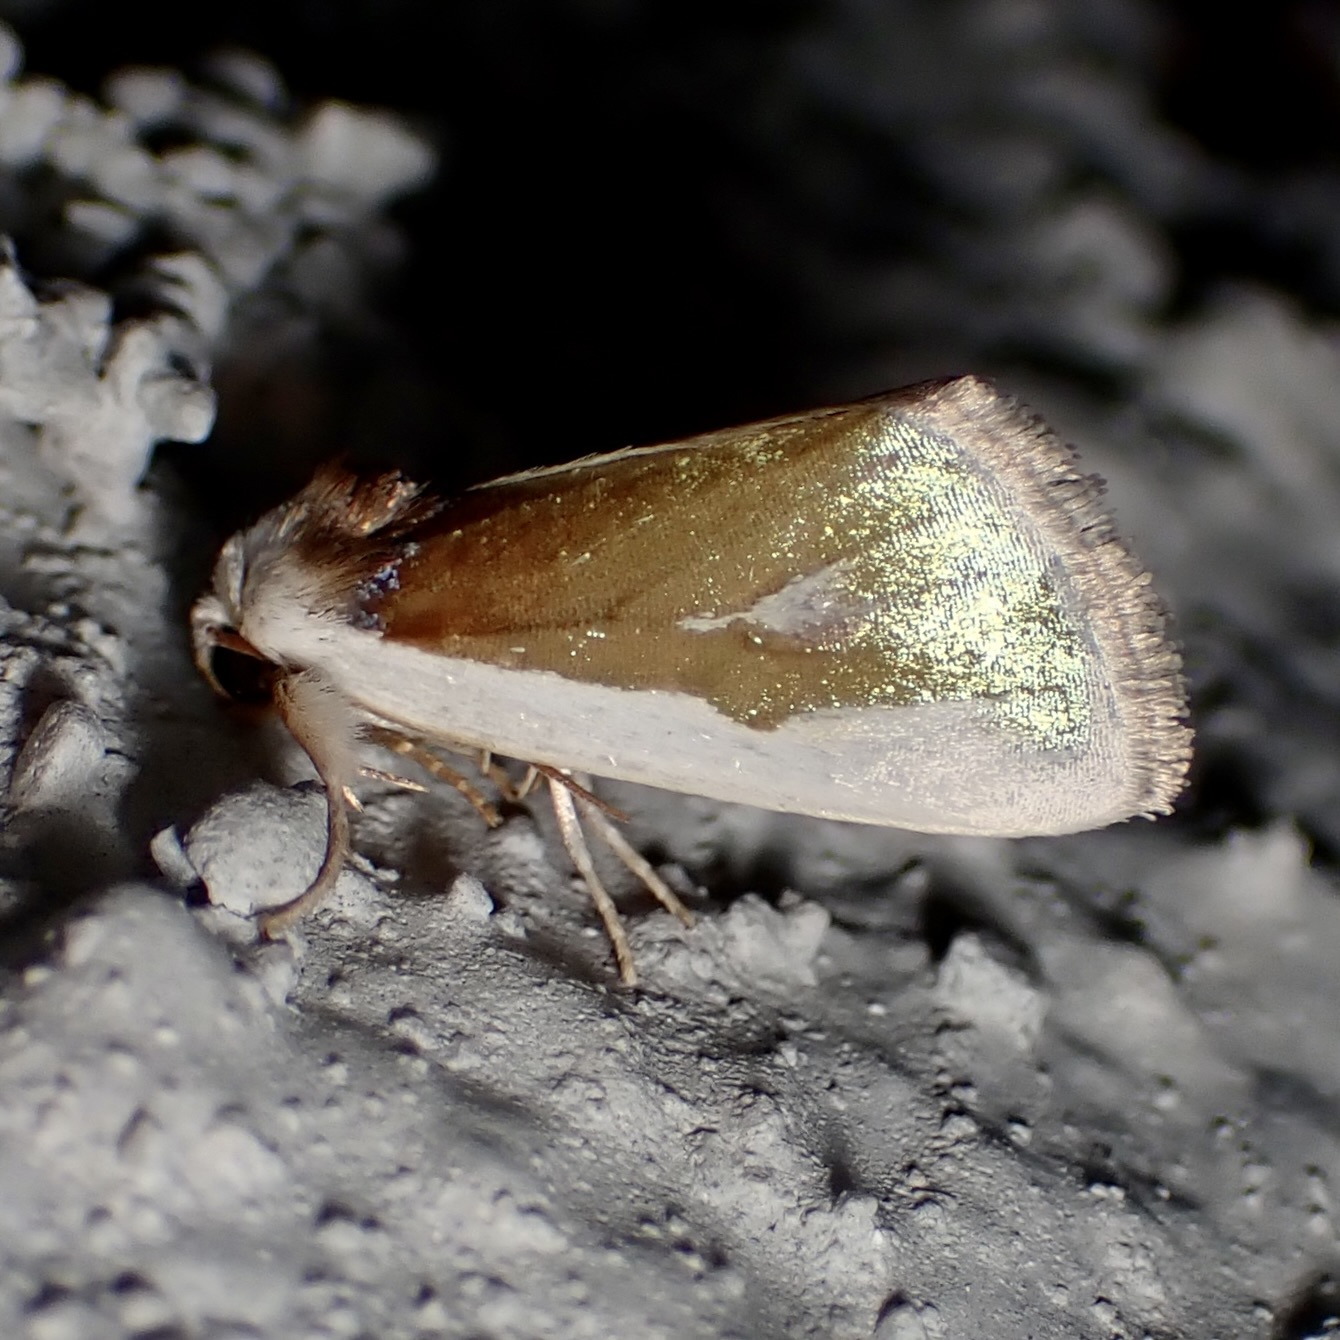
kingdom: Animalia
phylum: Arthropoda
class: Insecta
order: Lepidoptera
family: Noctuidae
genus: Neumoegenia
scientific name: Neumoegenia poetica
